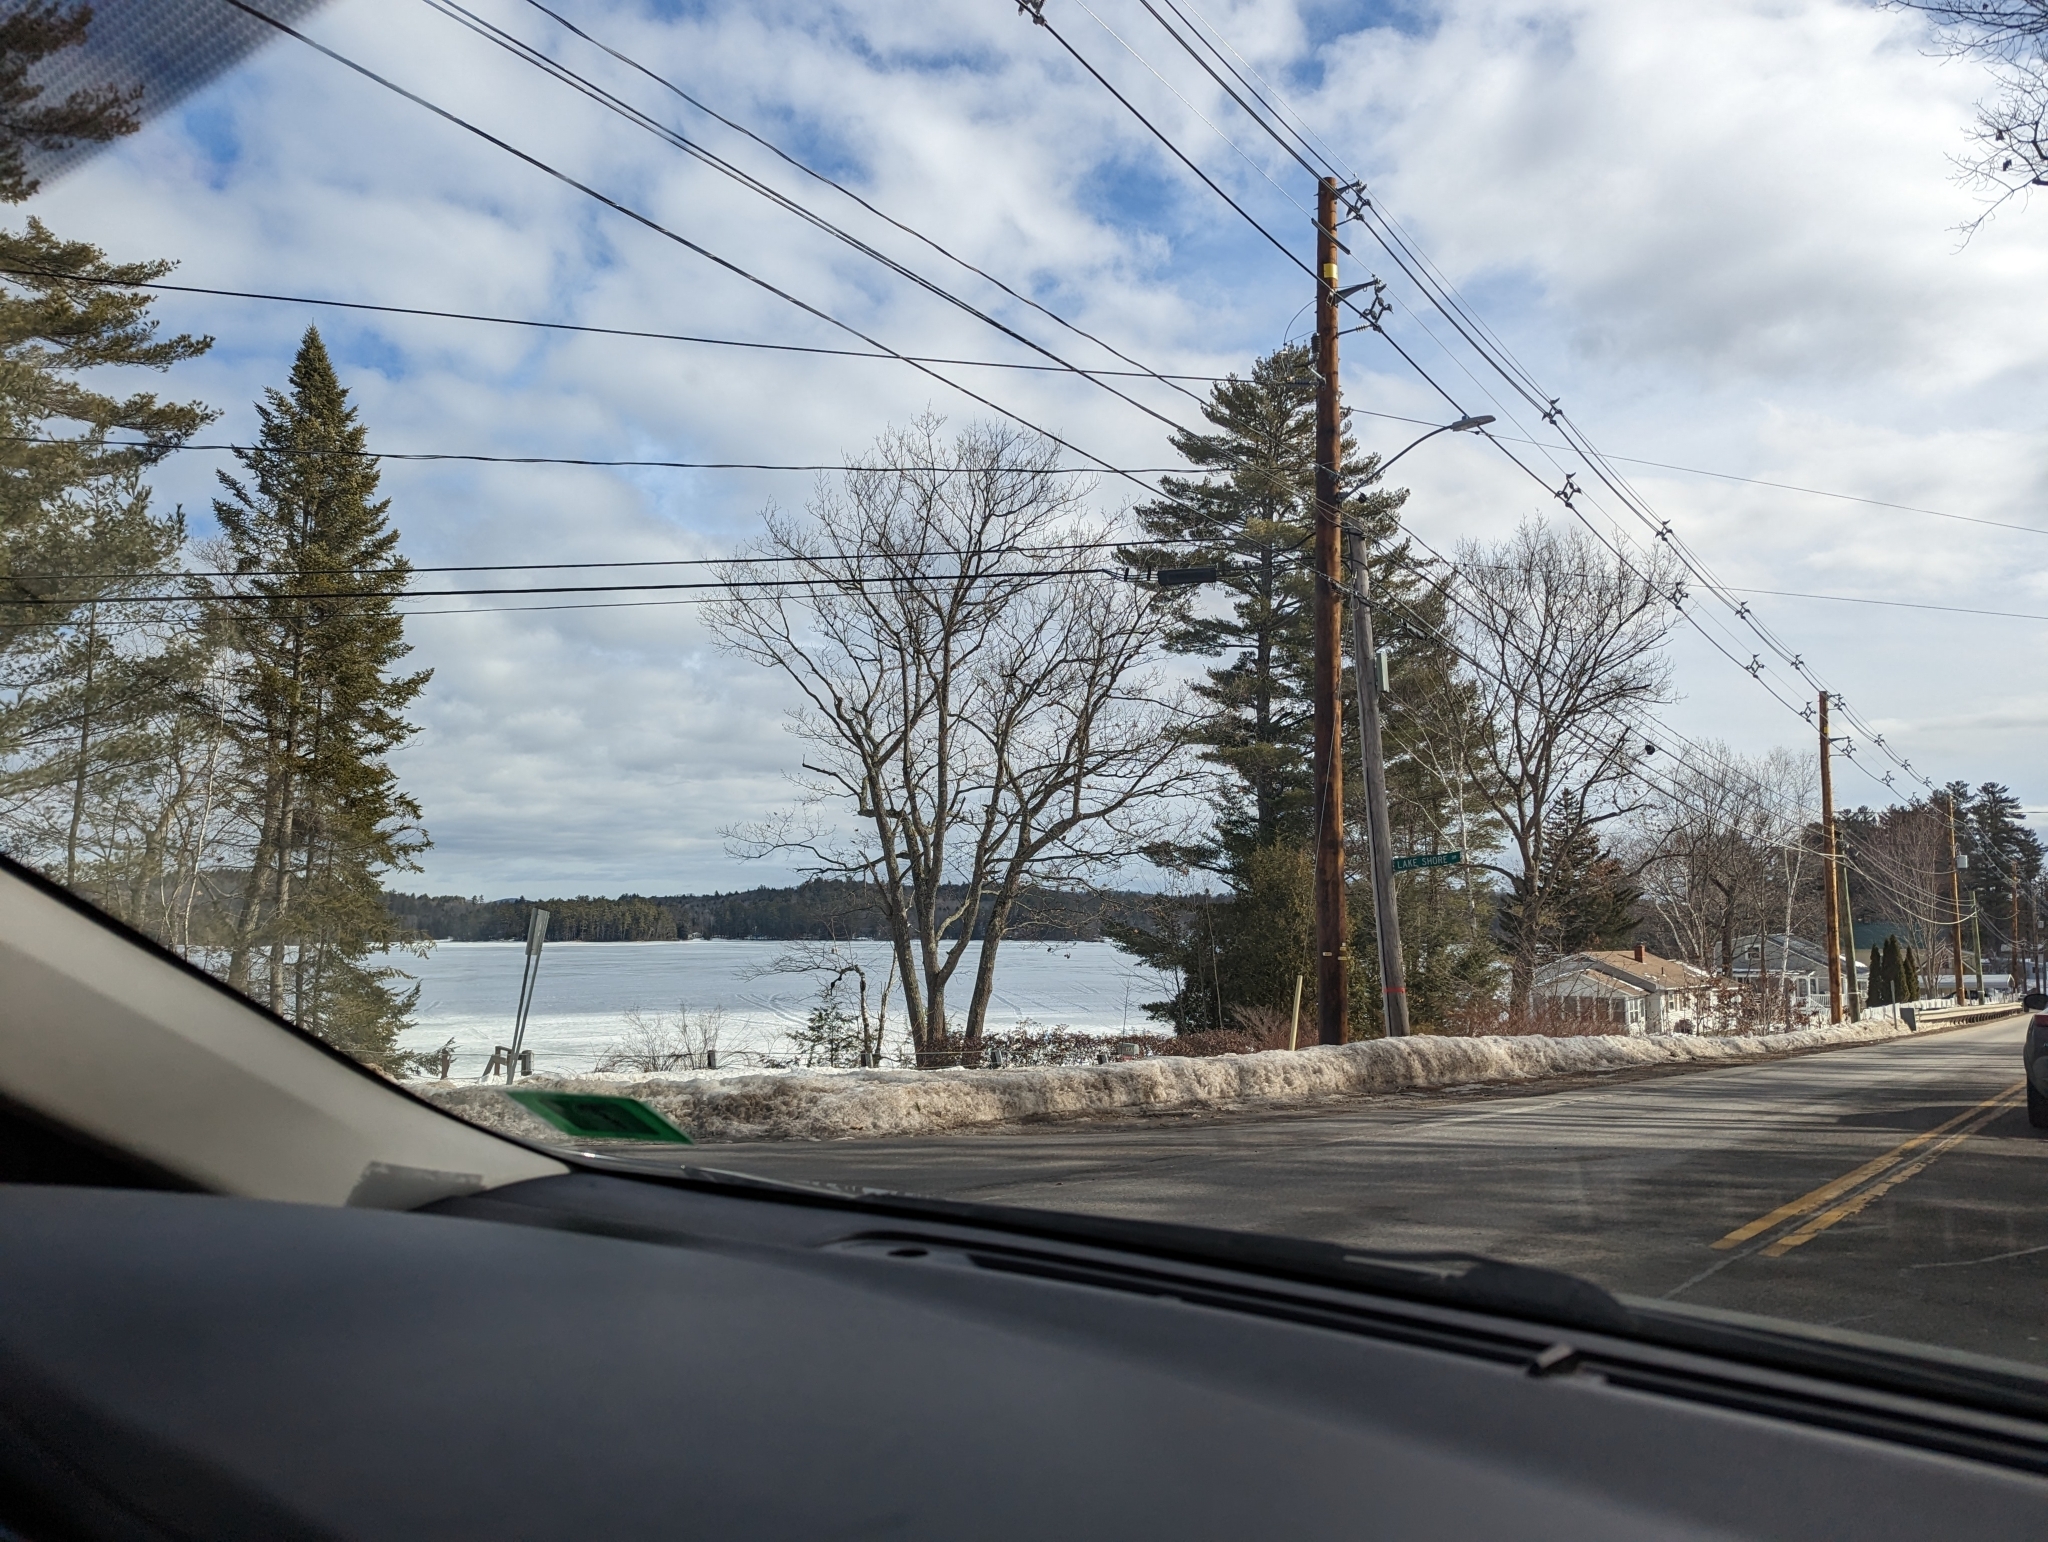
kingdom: Plantae
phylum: Tracheophyta
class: Pinopsida
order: Pinales
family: Pinaceae
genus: Pinus
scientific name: Pinus strobus
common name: Weymouth pine
